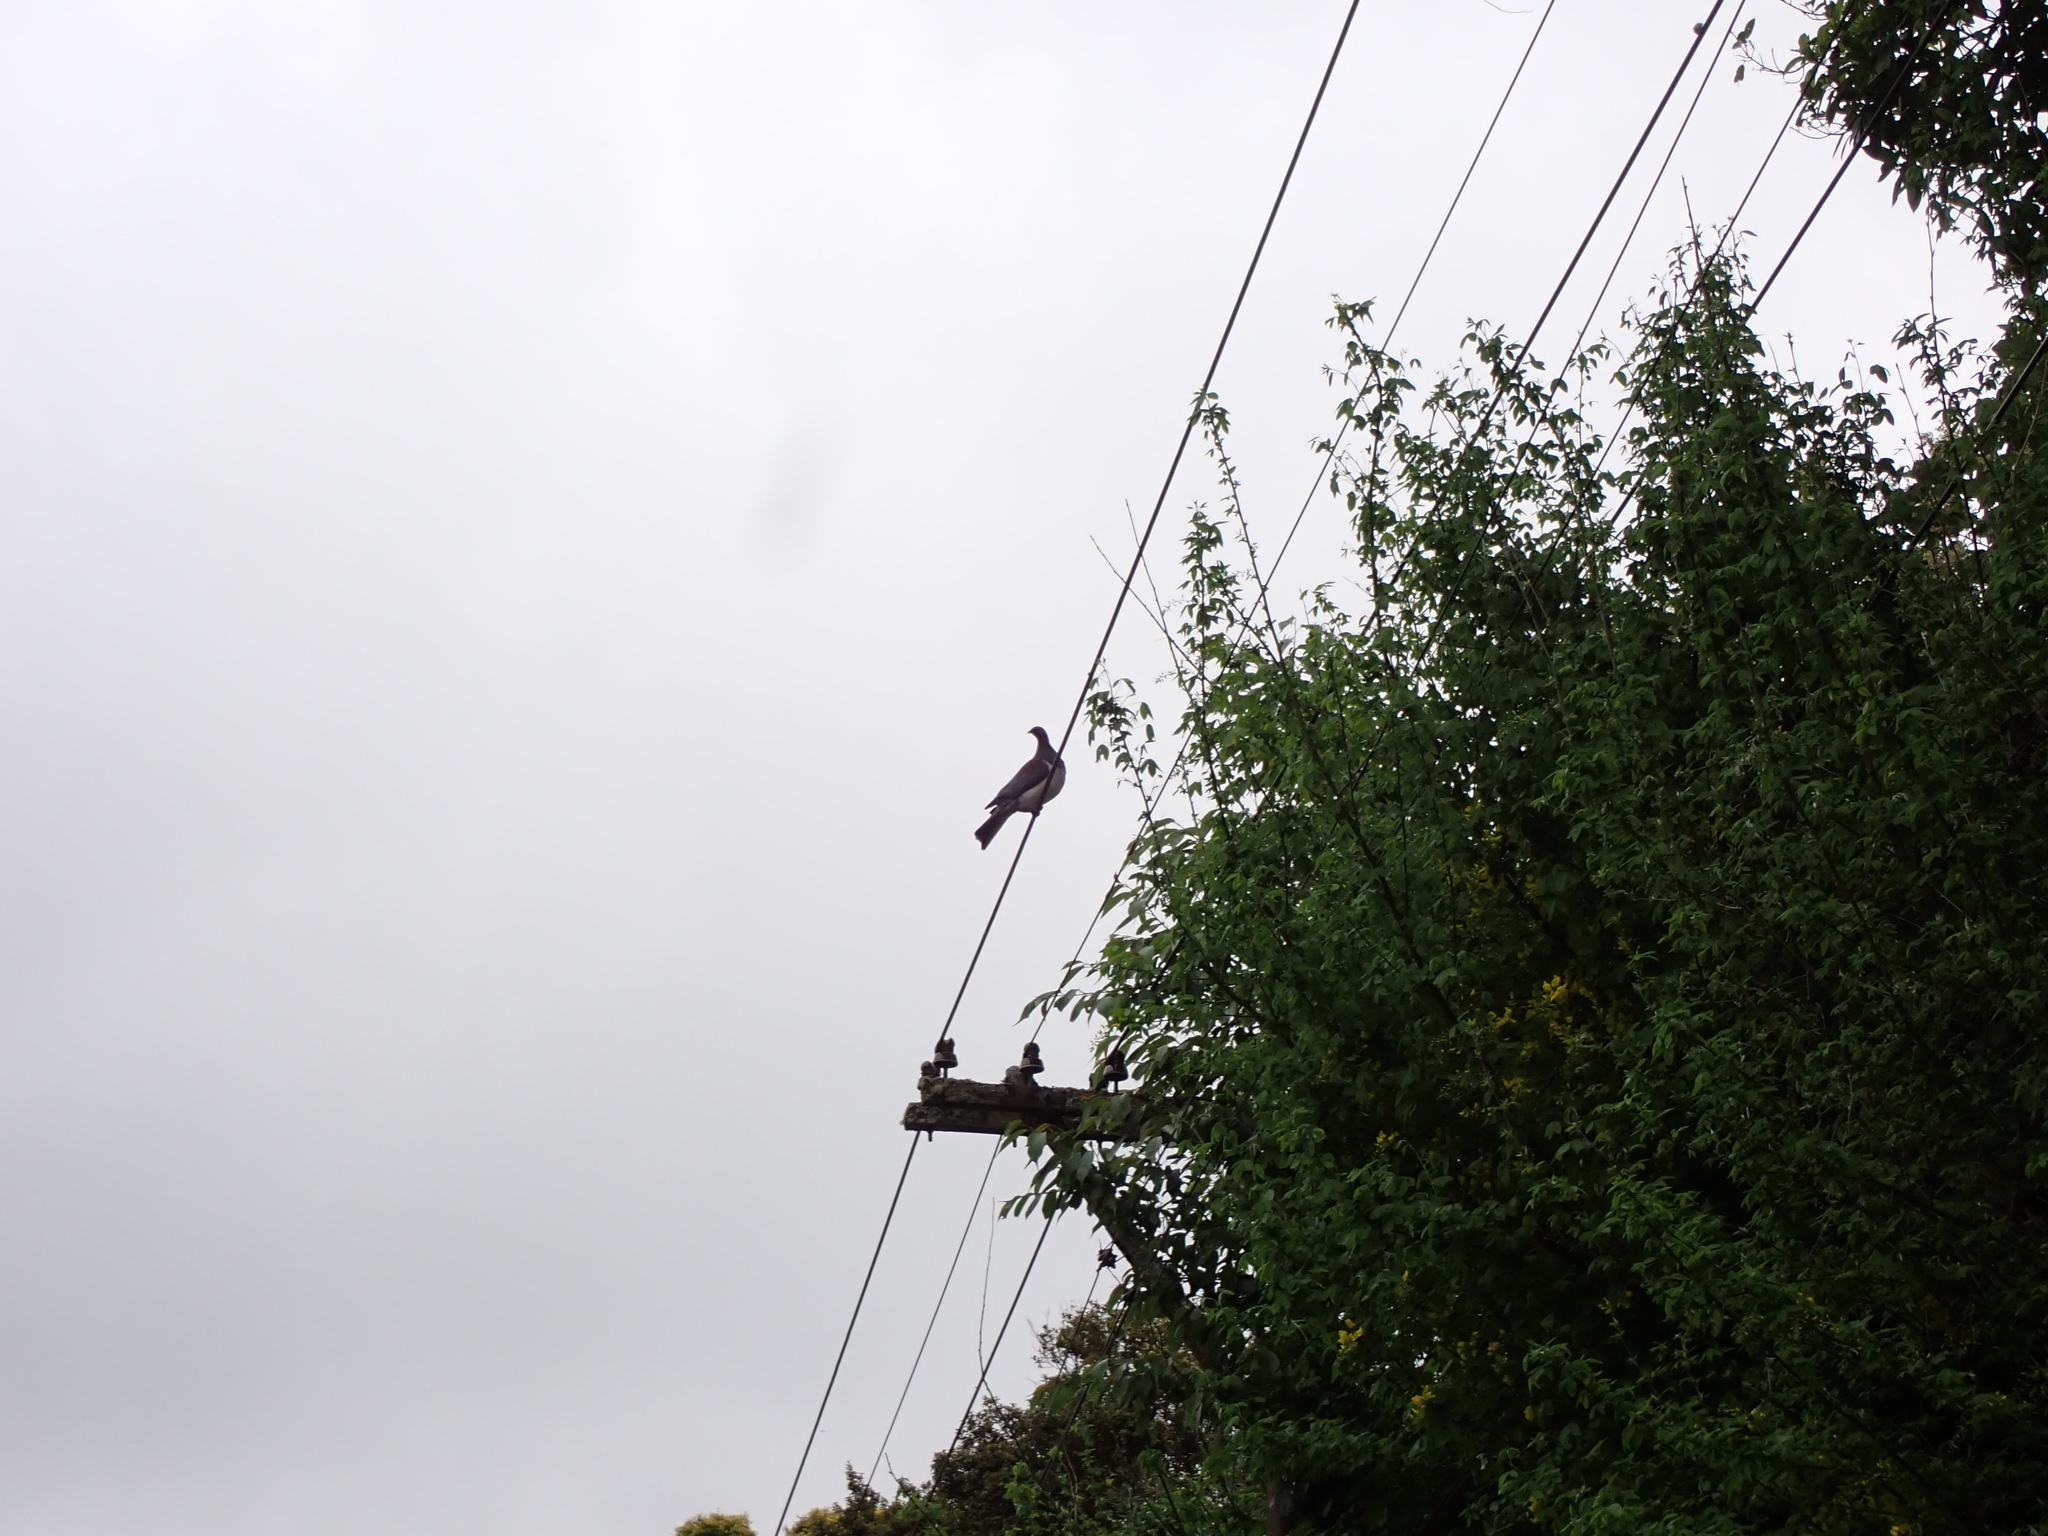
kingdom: Animalia
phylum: Chordata
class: Aves
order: Columbiformes
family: Columbidae
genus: Hemiphaga
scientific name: Hemiphaga novaeseelandiae
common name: New zealand pigeon
